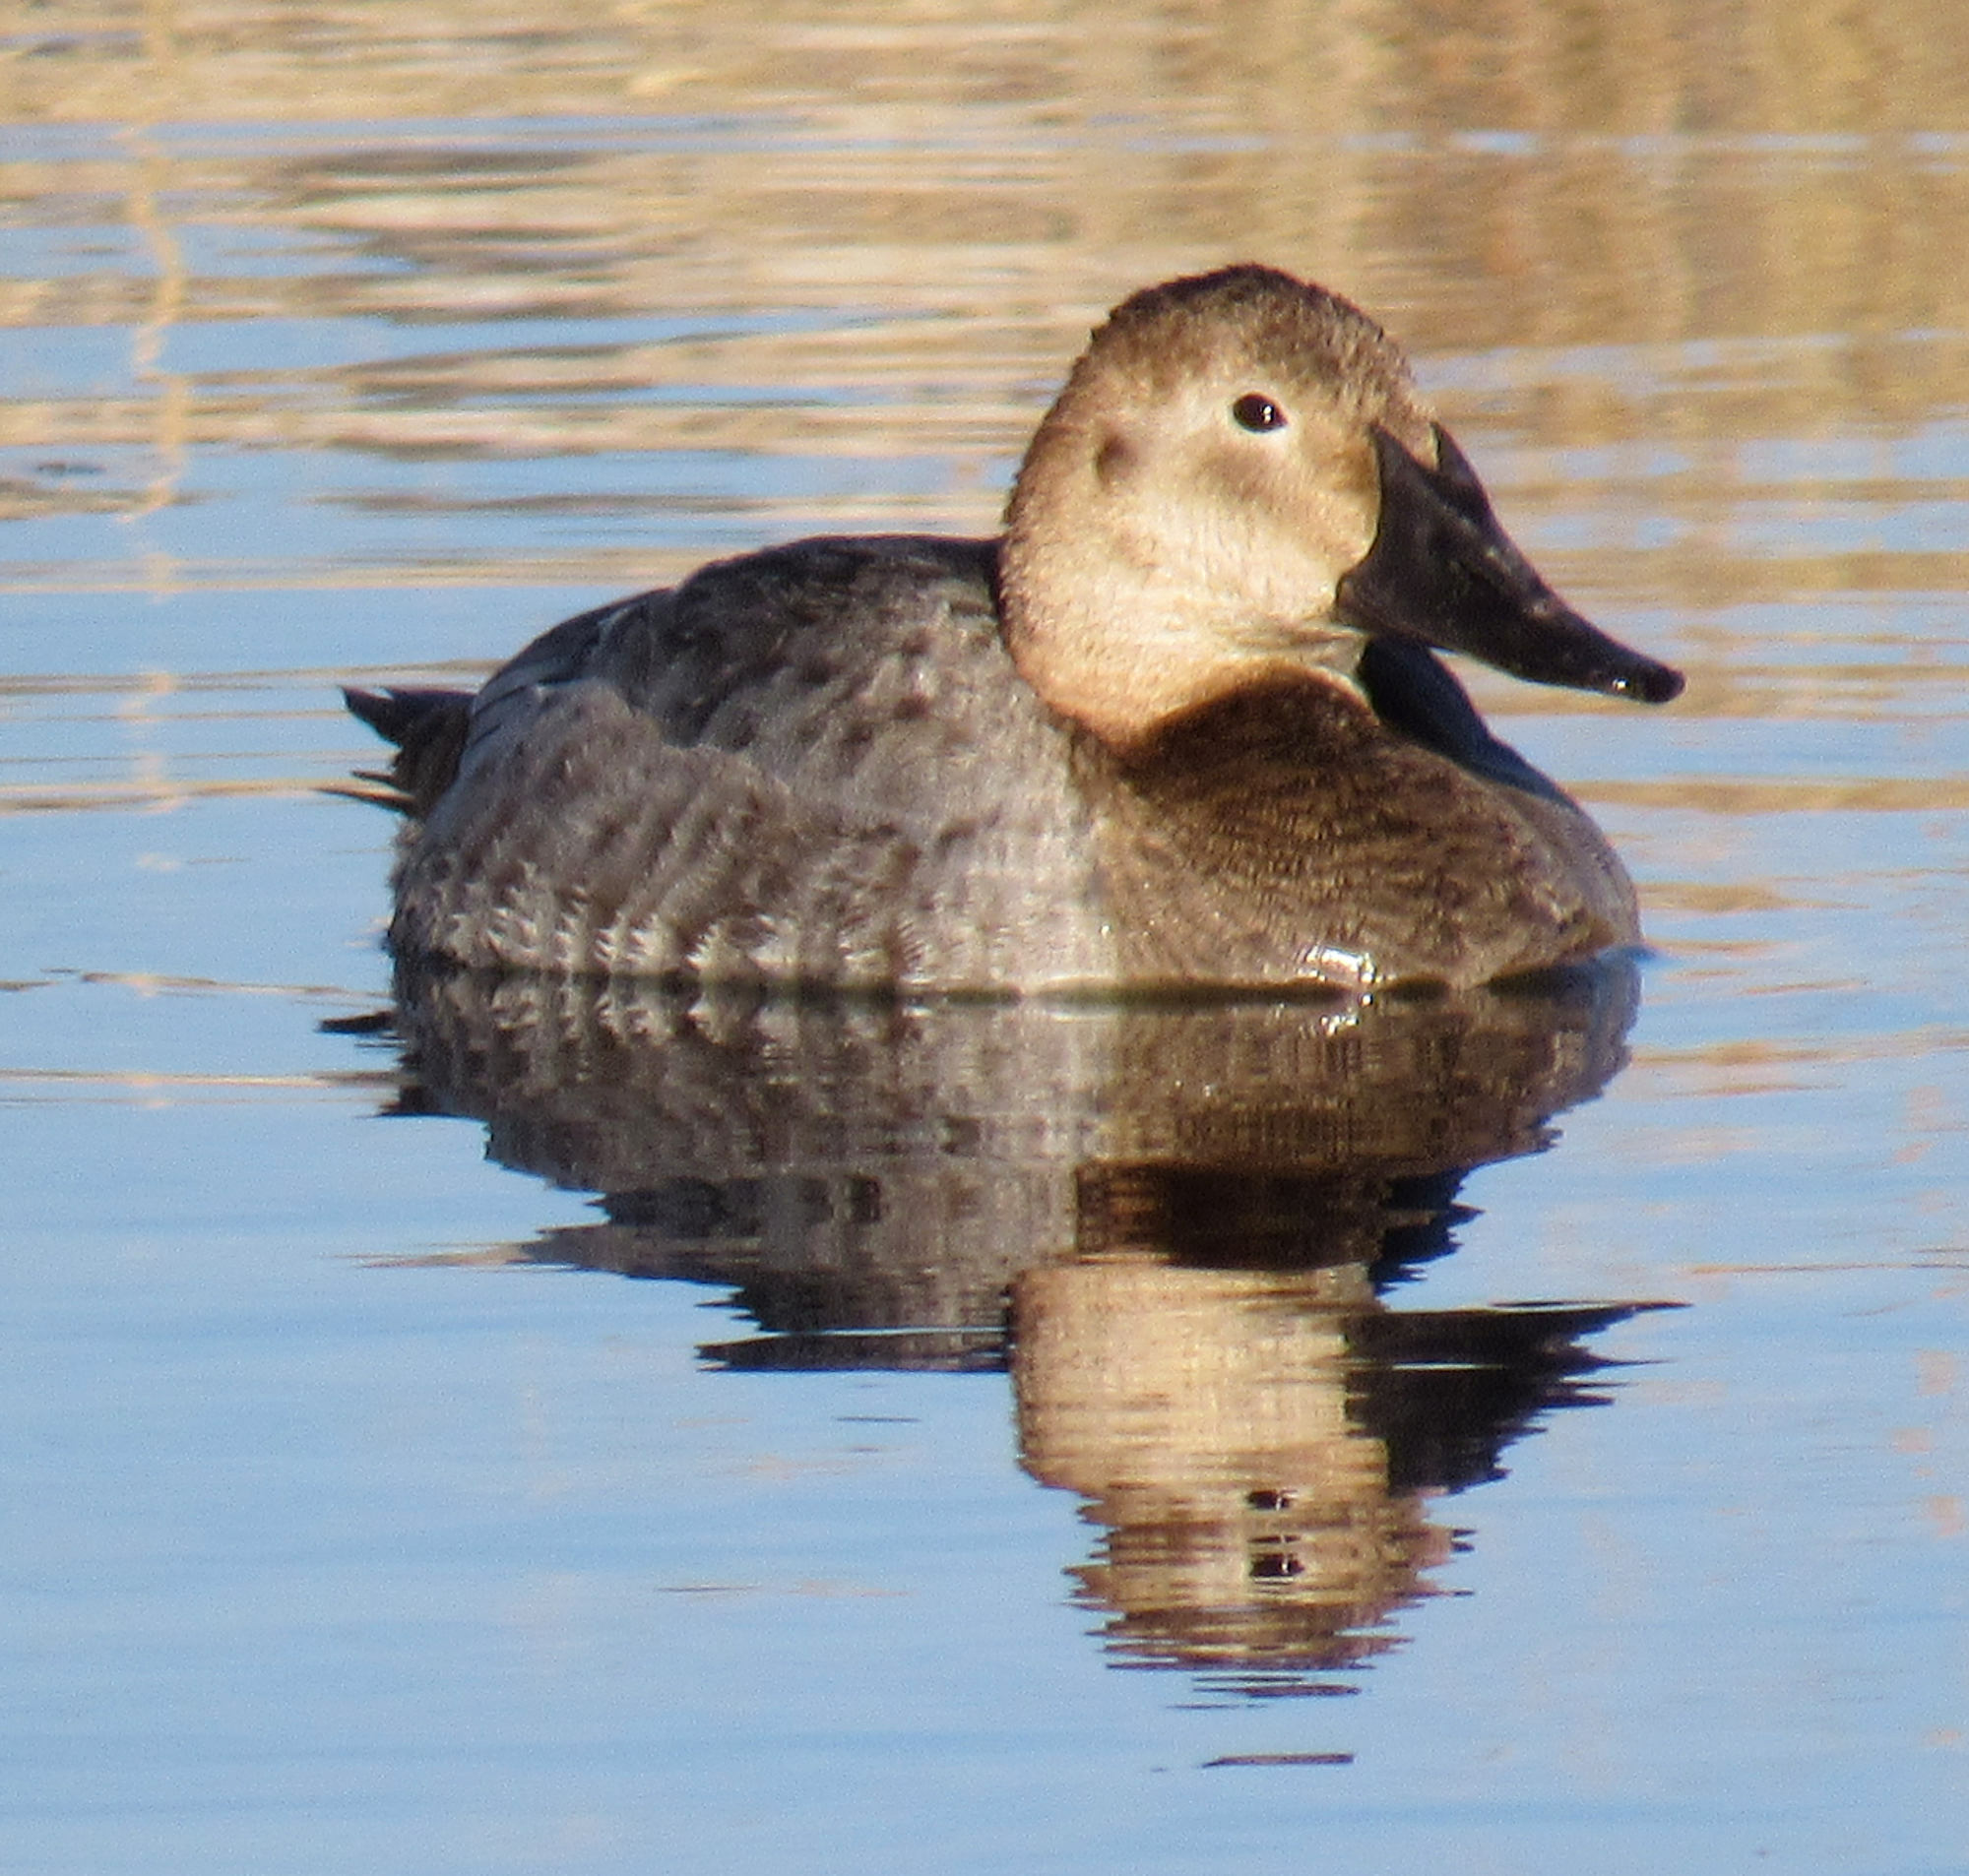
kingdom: Animalia
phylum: Chordata
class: Aves
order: Anseriformes
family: Anatidae
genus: Aythya
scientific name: Aythya valisineria
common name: Canvasback
